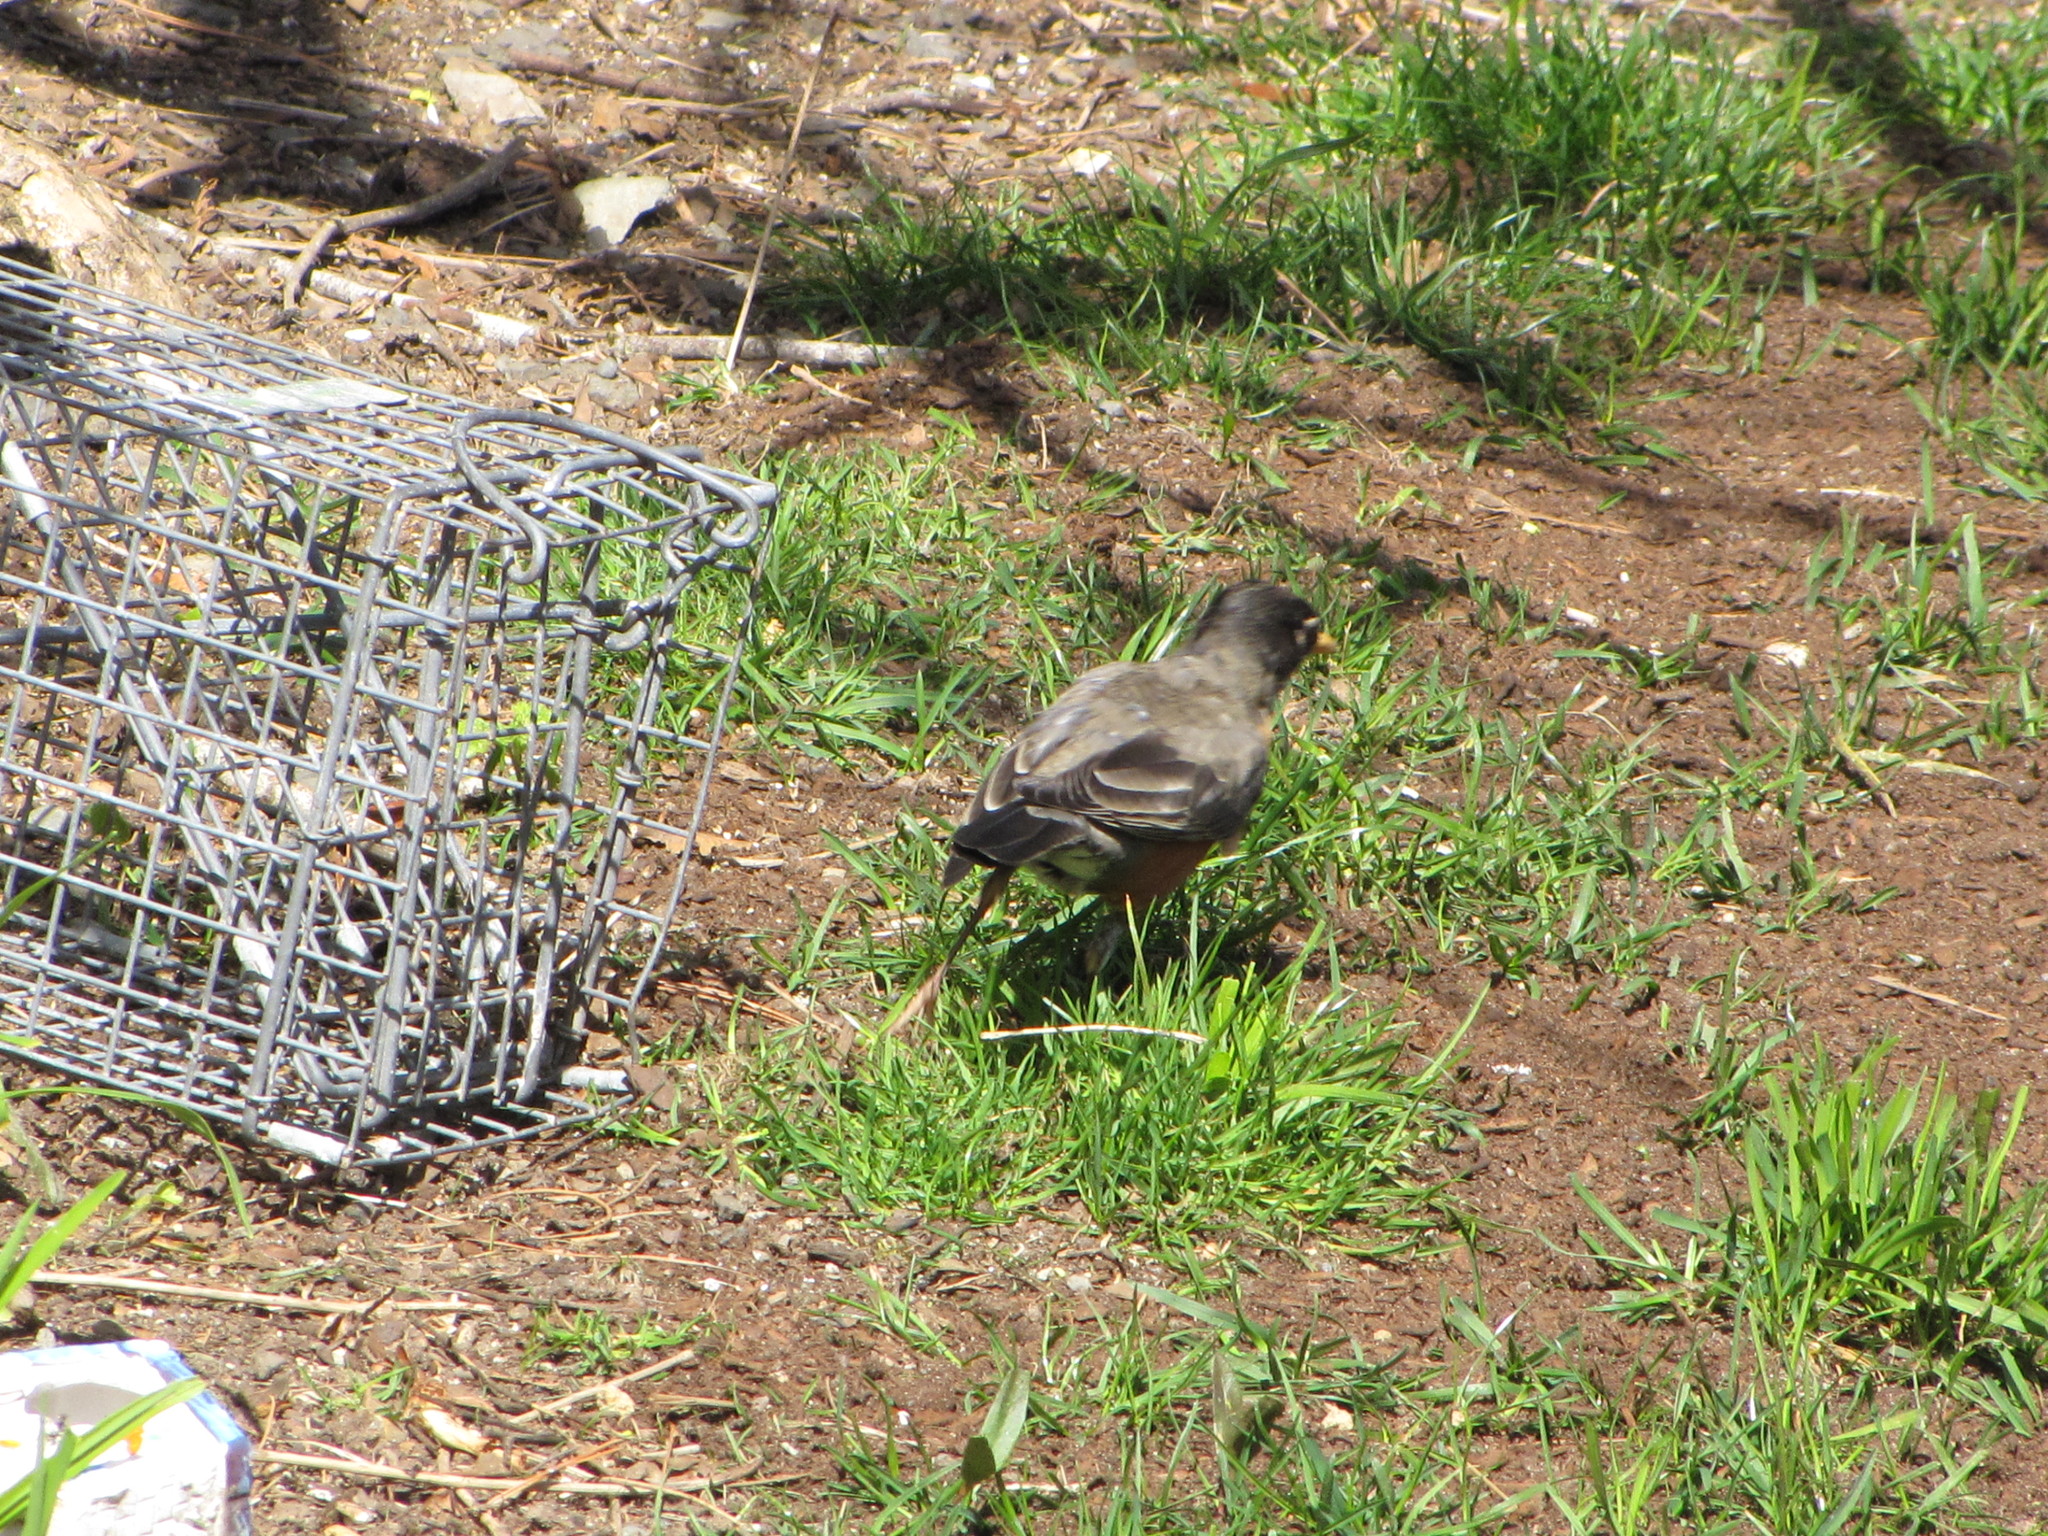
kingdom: Animalia
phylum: Chordata
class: Aves
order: Passeriformes
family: Turdidae
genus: Turdus
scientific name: Turdus migratorius
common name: American robin
